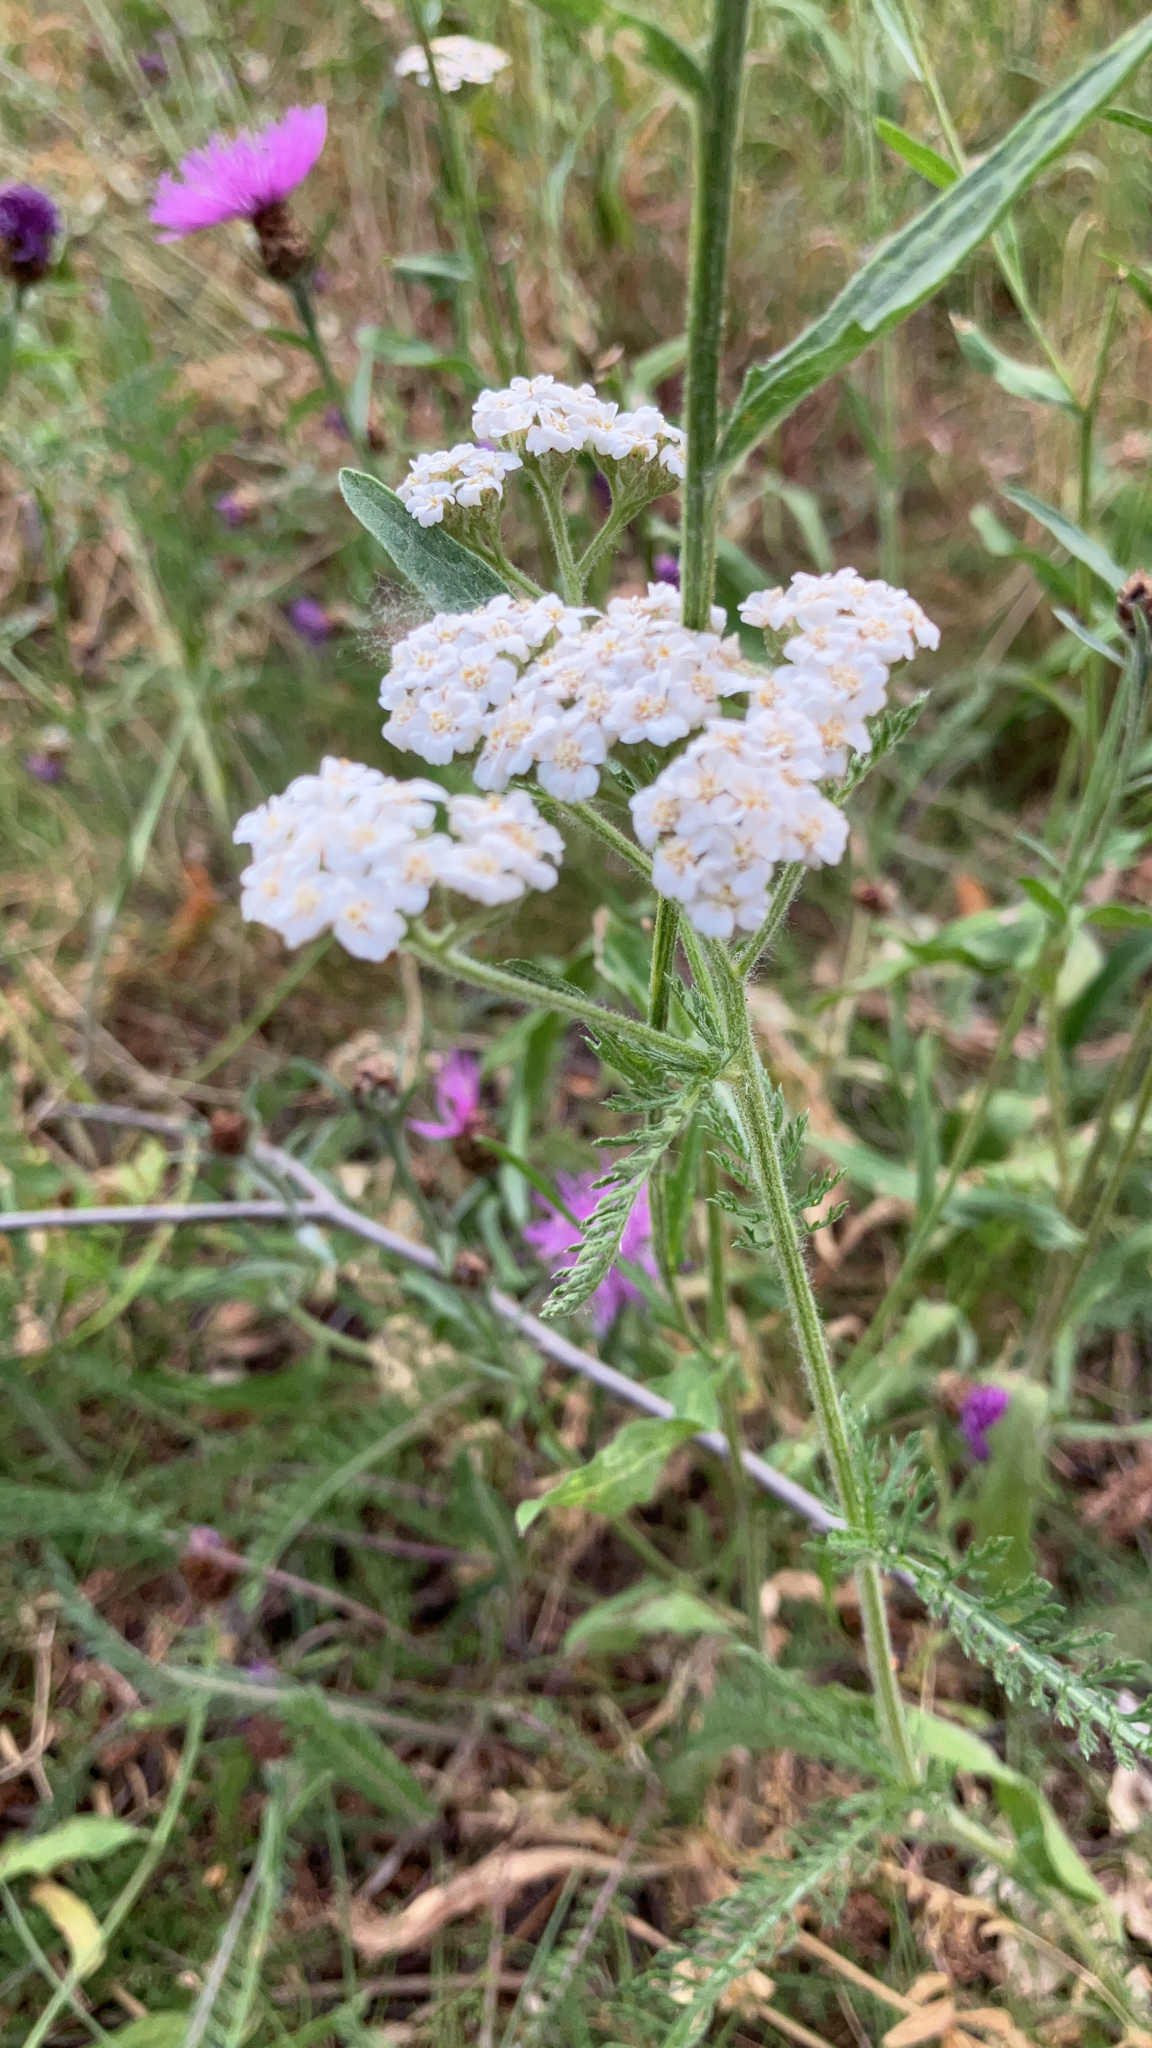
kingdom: Plantae
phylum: Tracheophyta
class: Magnoliopsida
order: Asterales
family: Asteraceae
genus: Achillea
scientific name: Achillea millefolium
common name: Yarrow
